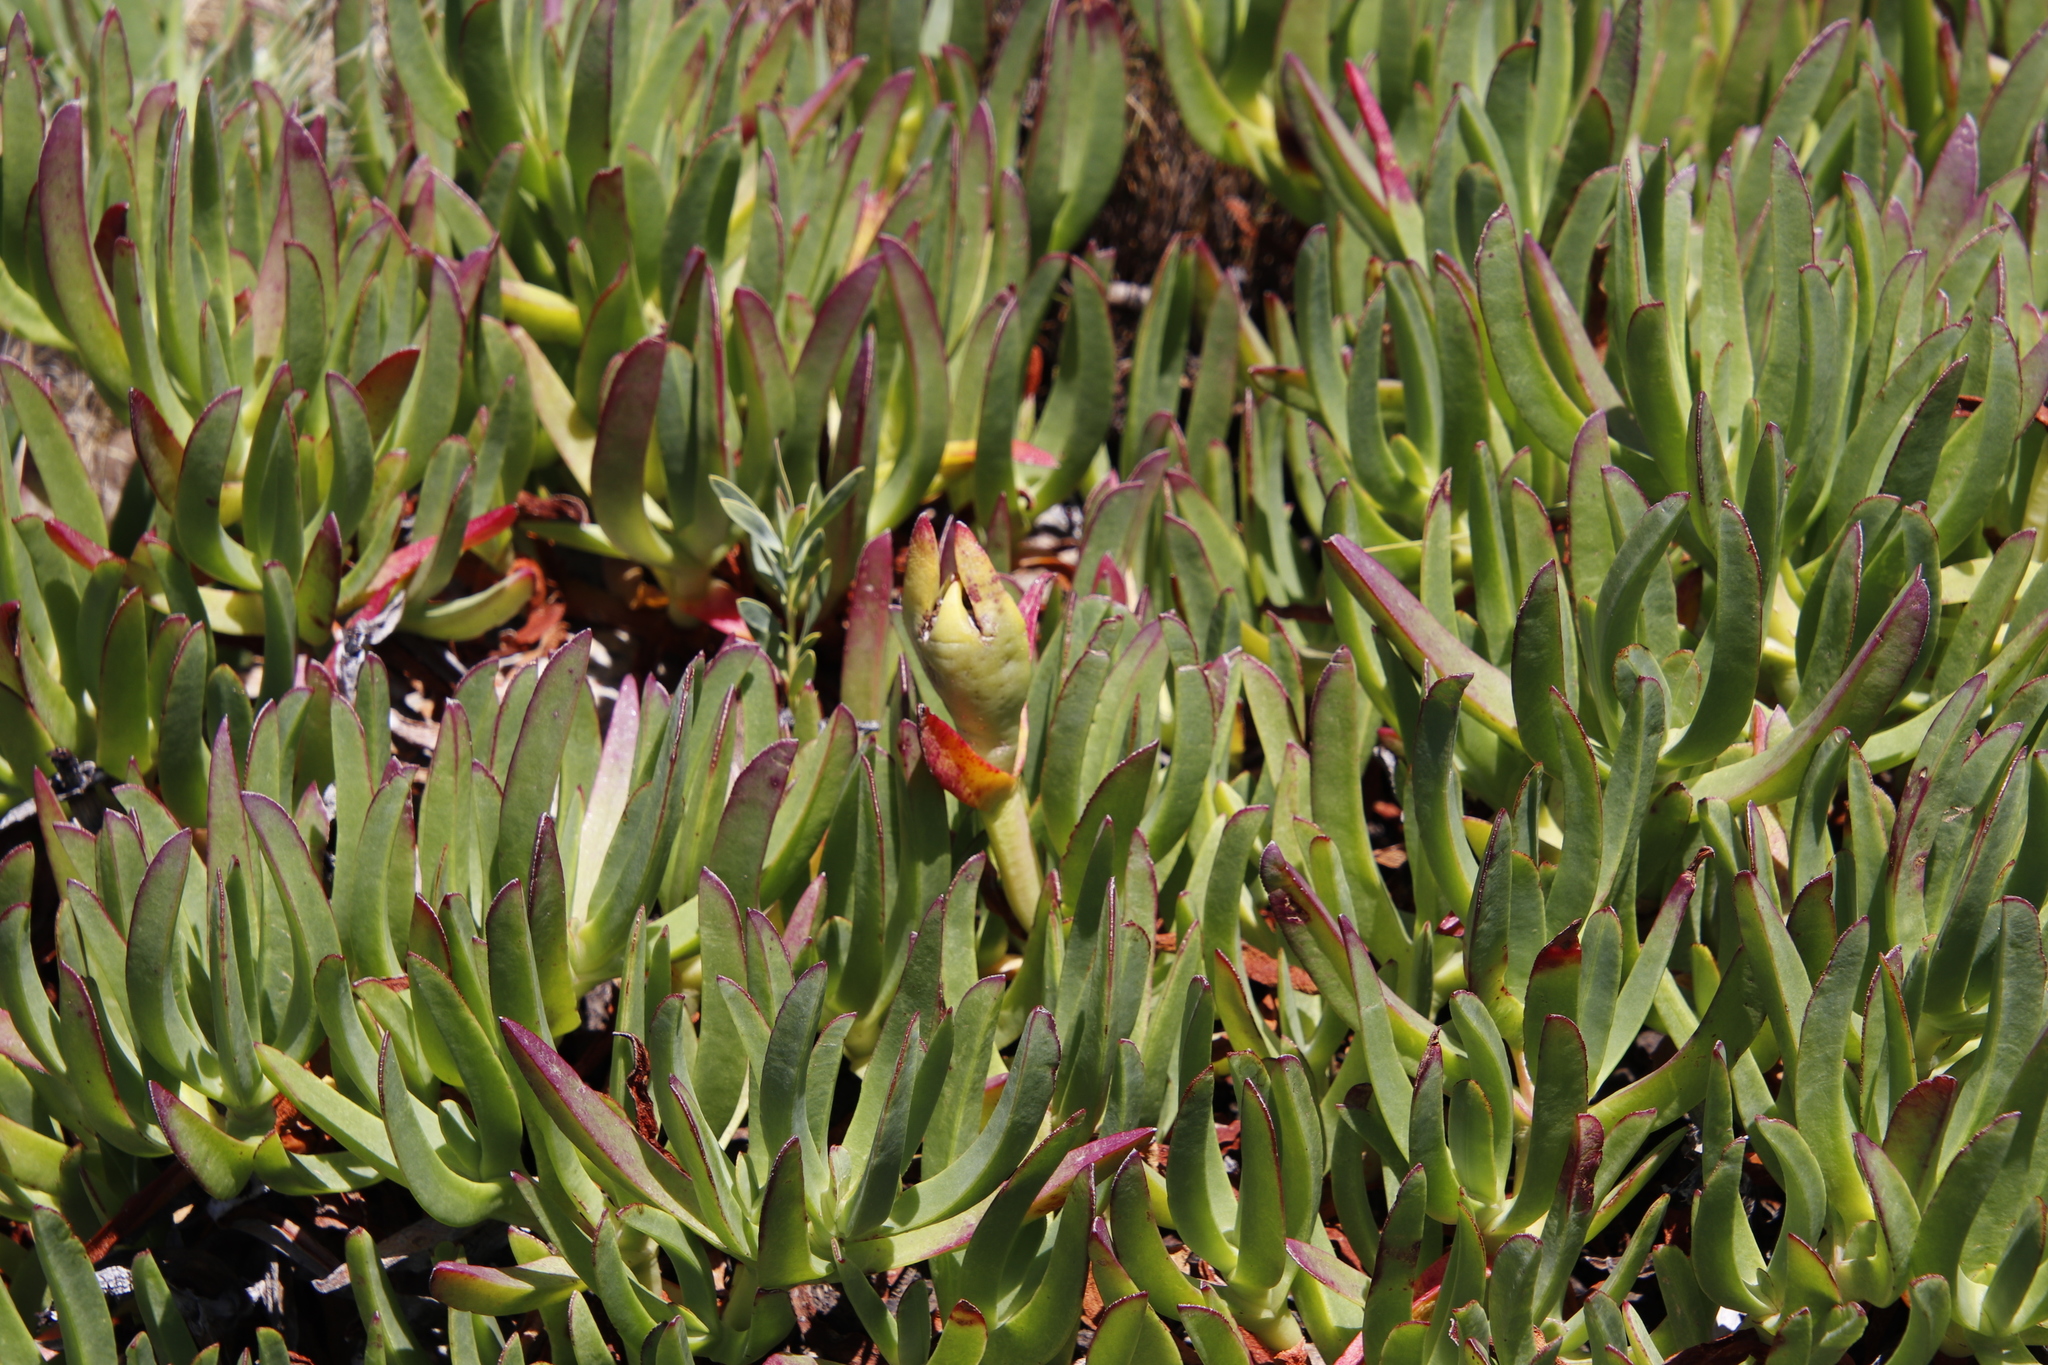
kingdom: Plantae
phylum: Tracheophyta
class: Magnoliopsida
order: Caryophyllales
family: Aizoaceae
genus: Carpobrotus
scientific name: Carpobrotus edulis
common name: Hottentot-fig
